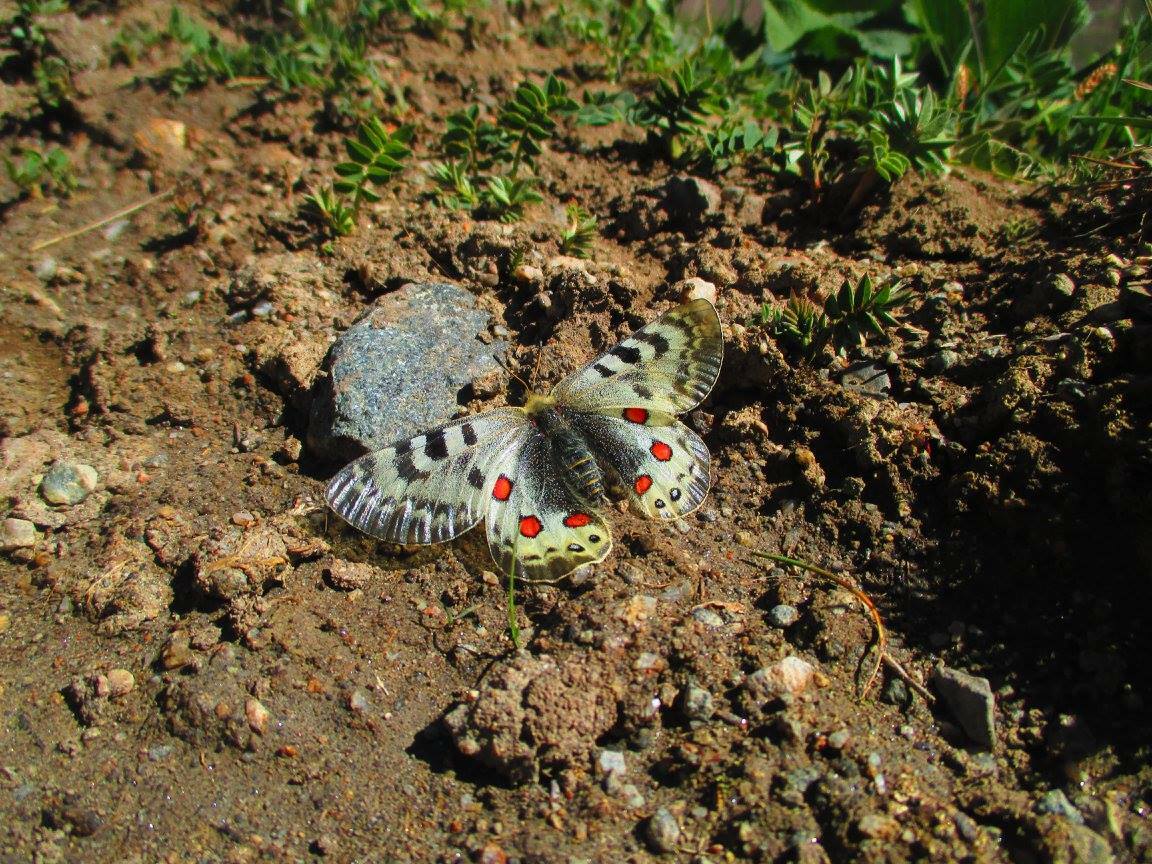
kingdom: Animalia
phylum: Arthropoda
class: Insecta
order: Lepidoptera
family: Papilionidae
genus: Parnassius
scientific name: Parnassius delphius
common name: Banded apollo
